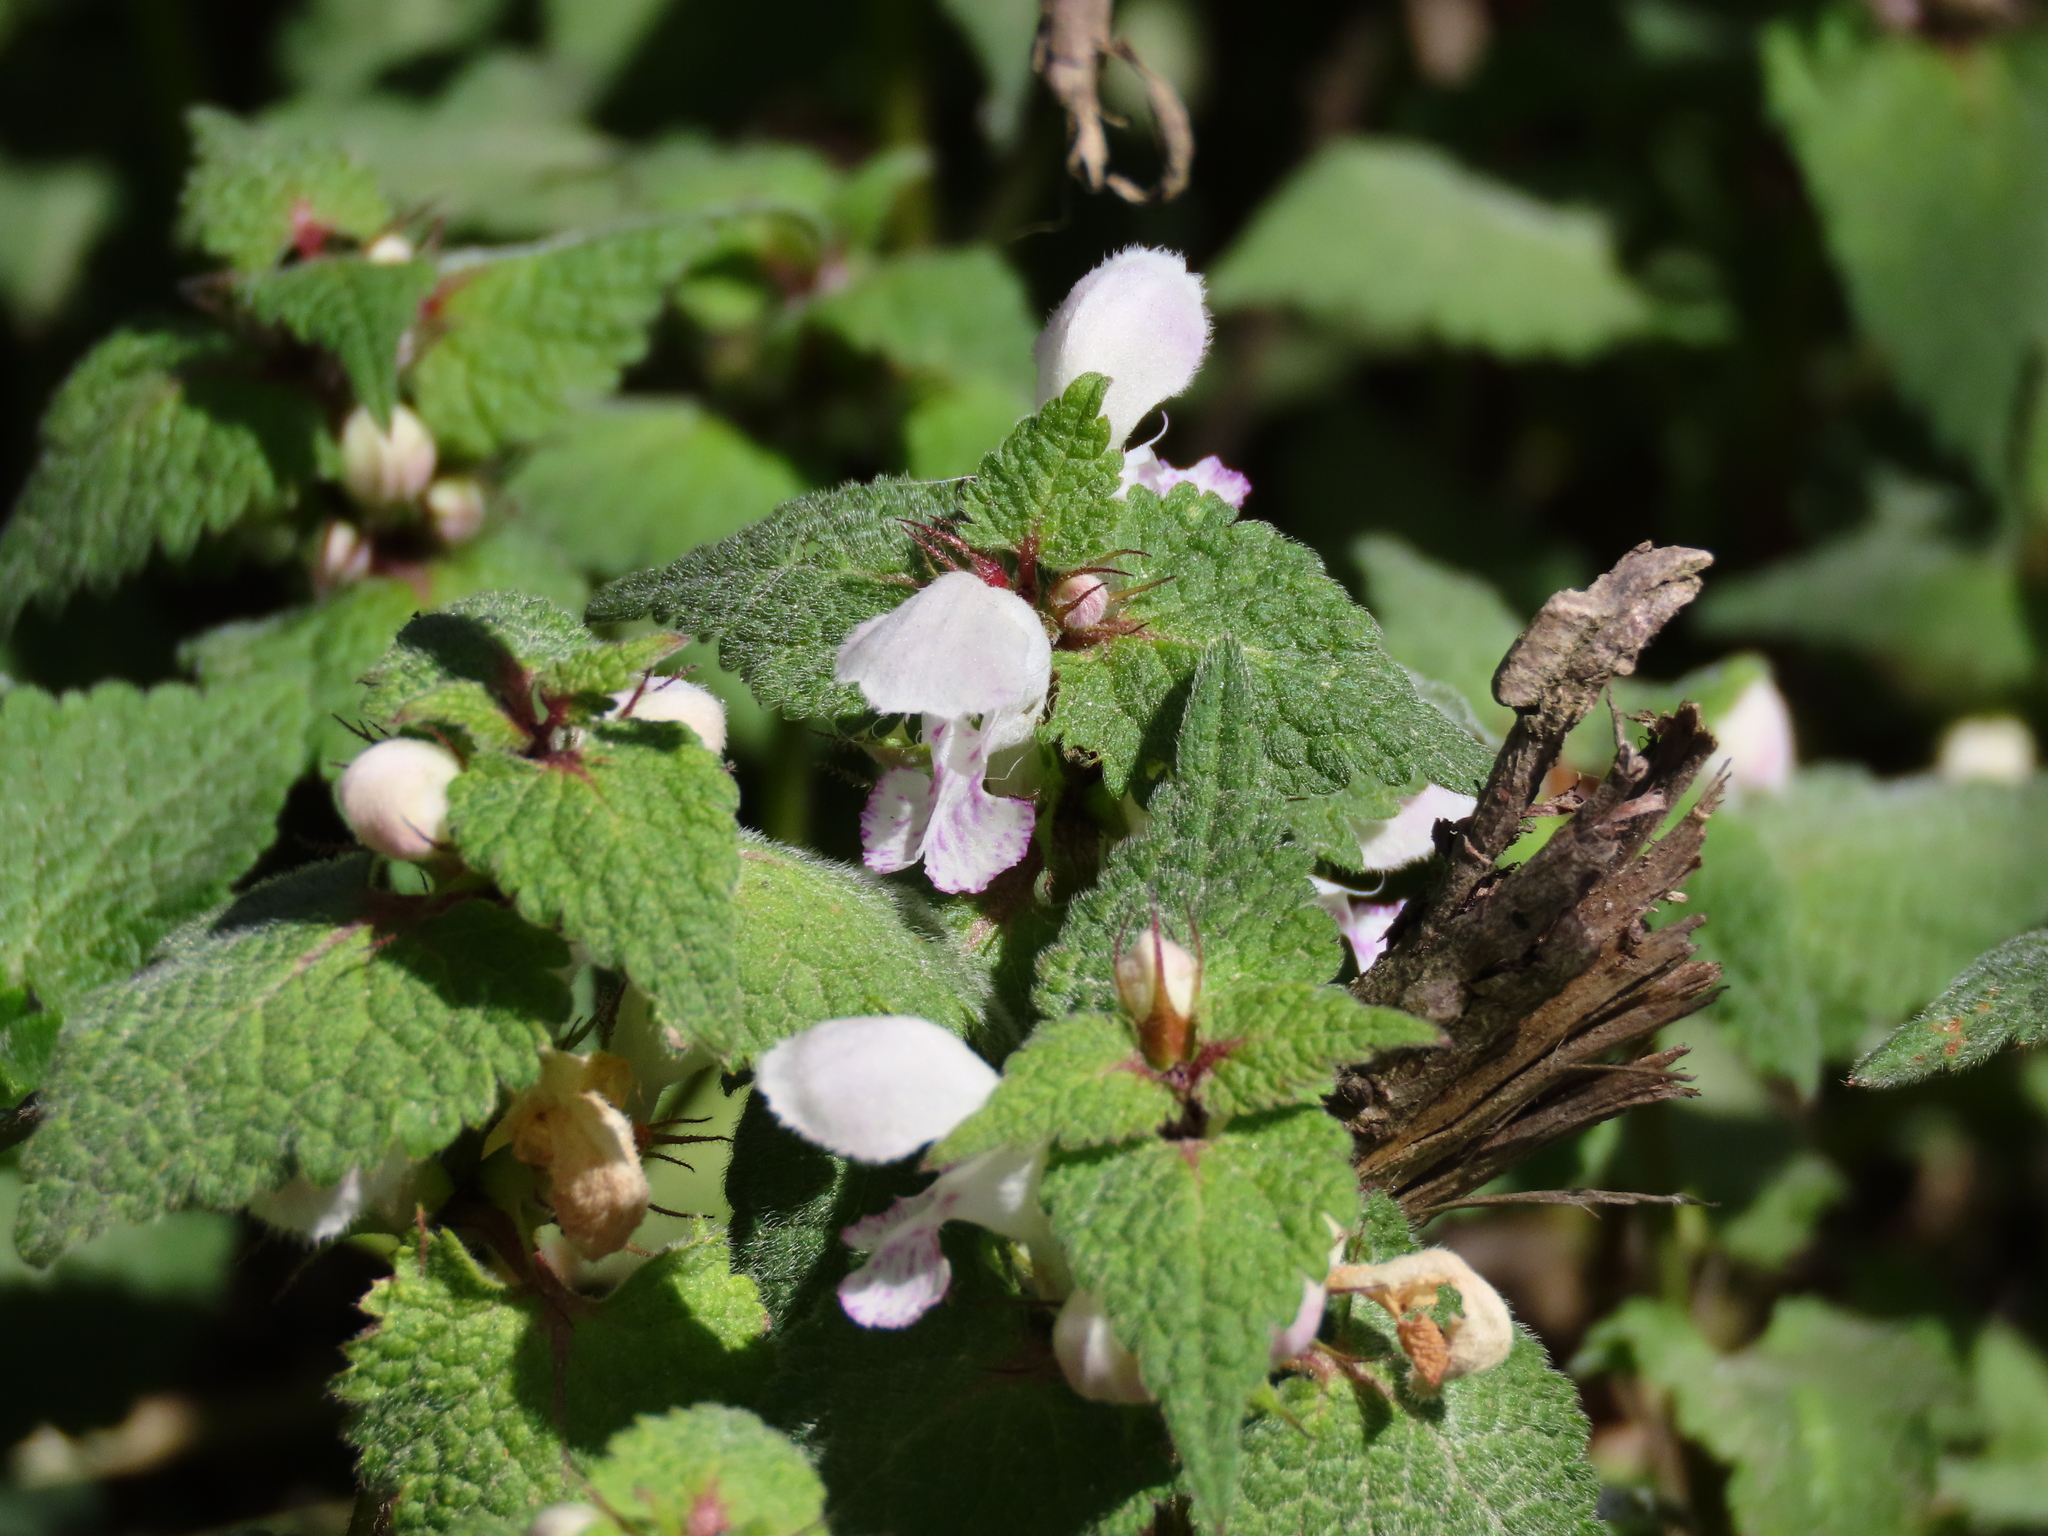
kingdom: Plantae
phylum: Tracheophyta
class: Magnoliopsida
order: Lamiales
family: Lamiaceae
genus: Lamium
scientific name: Lamium maculatum
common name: Spotted dead-nettle
